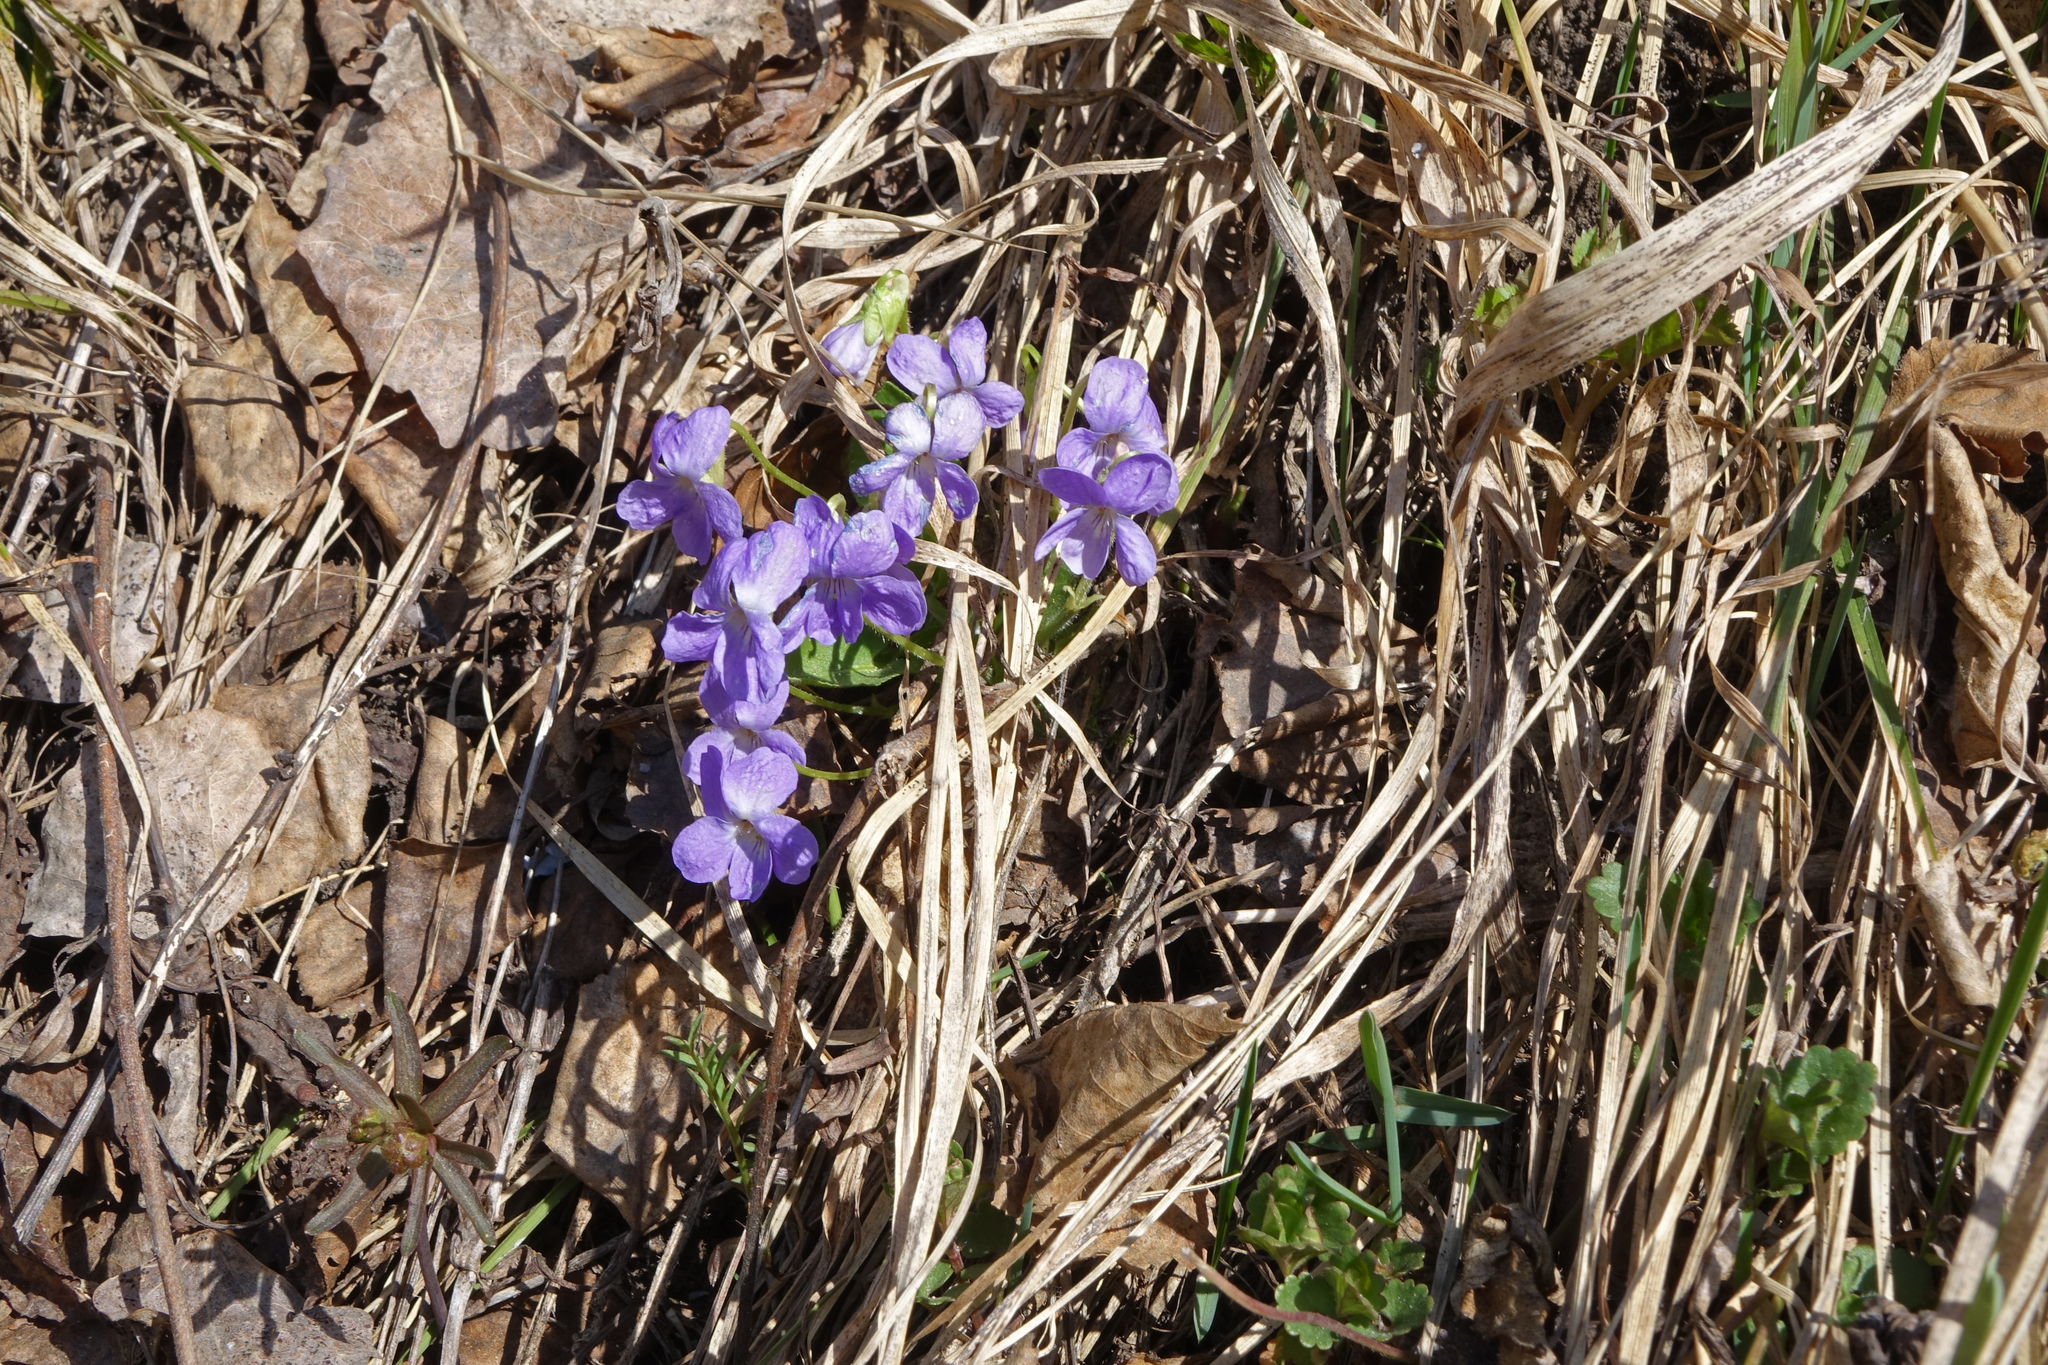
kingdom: Plantae
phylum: Tracheophyta
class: Magnoliopsida
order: Malpighiales
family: Violaceae
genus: Viola
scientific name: Viola hirta
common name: Hairy violet
